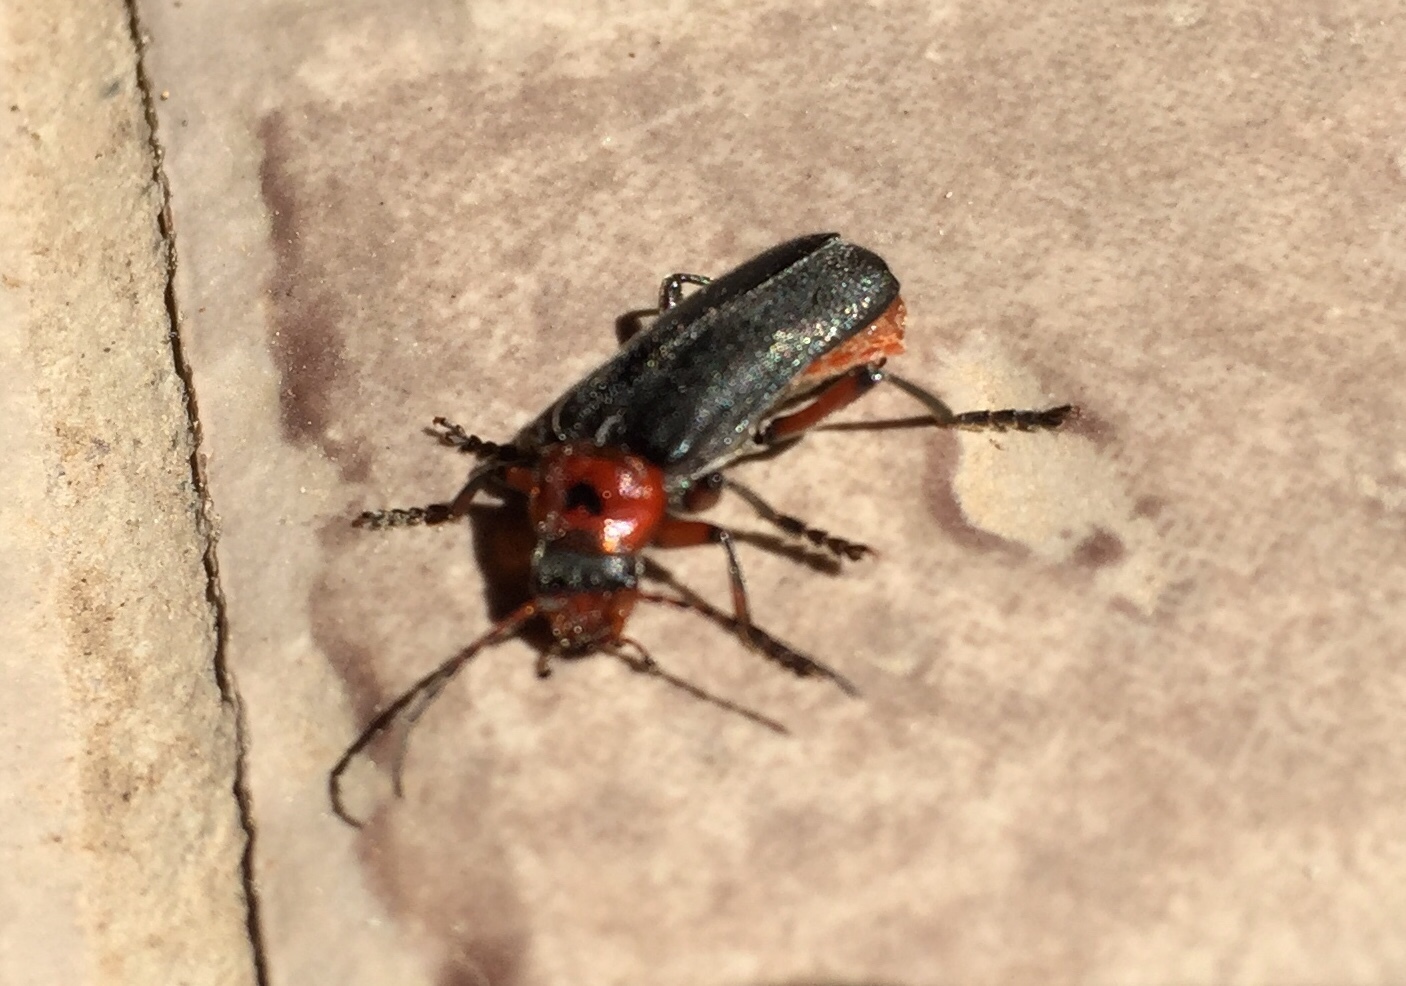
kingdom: Animalia
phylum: Arthropoda
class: Insecta
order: Coleoptera
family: Cantharidae
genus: Cantharis
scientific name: Cantharis rustica
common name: Soldier beetle
